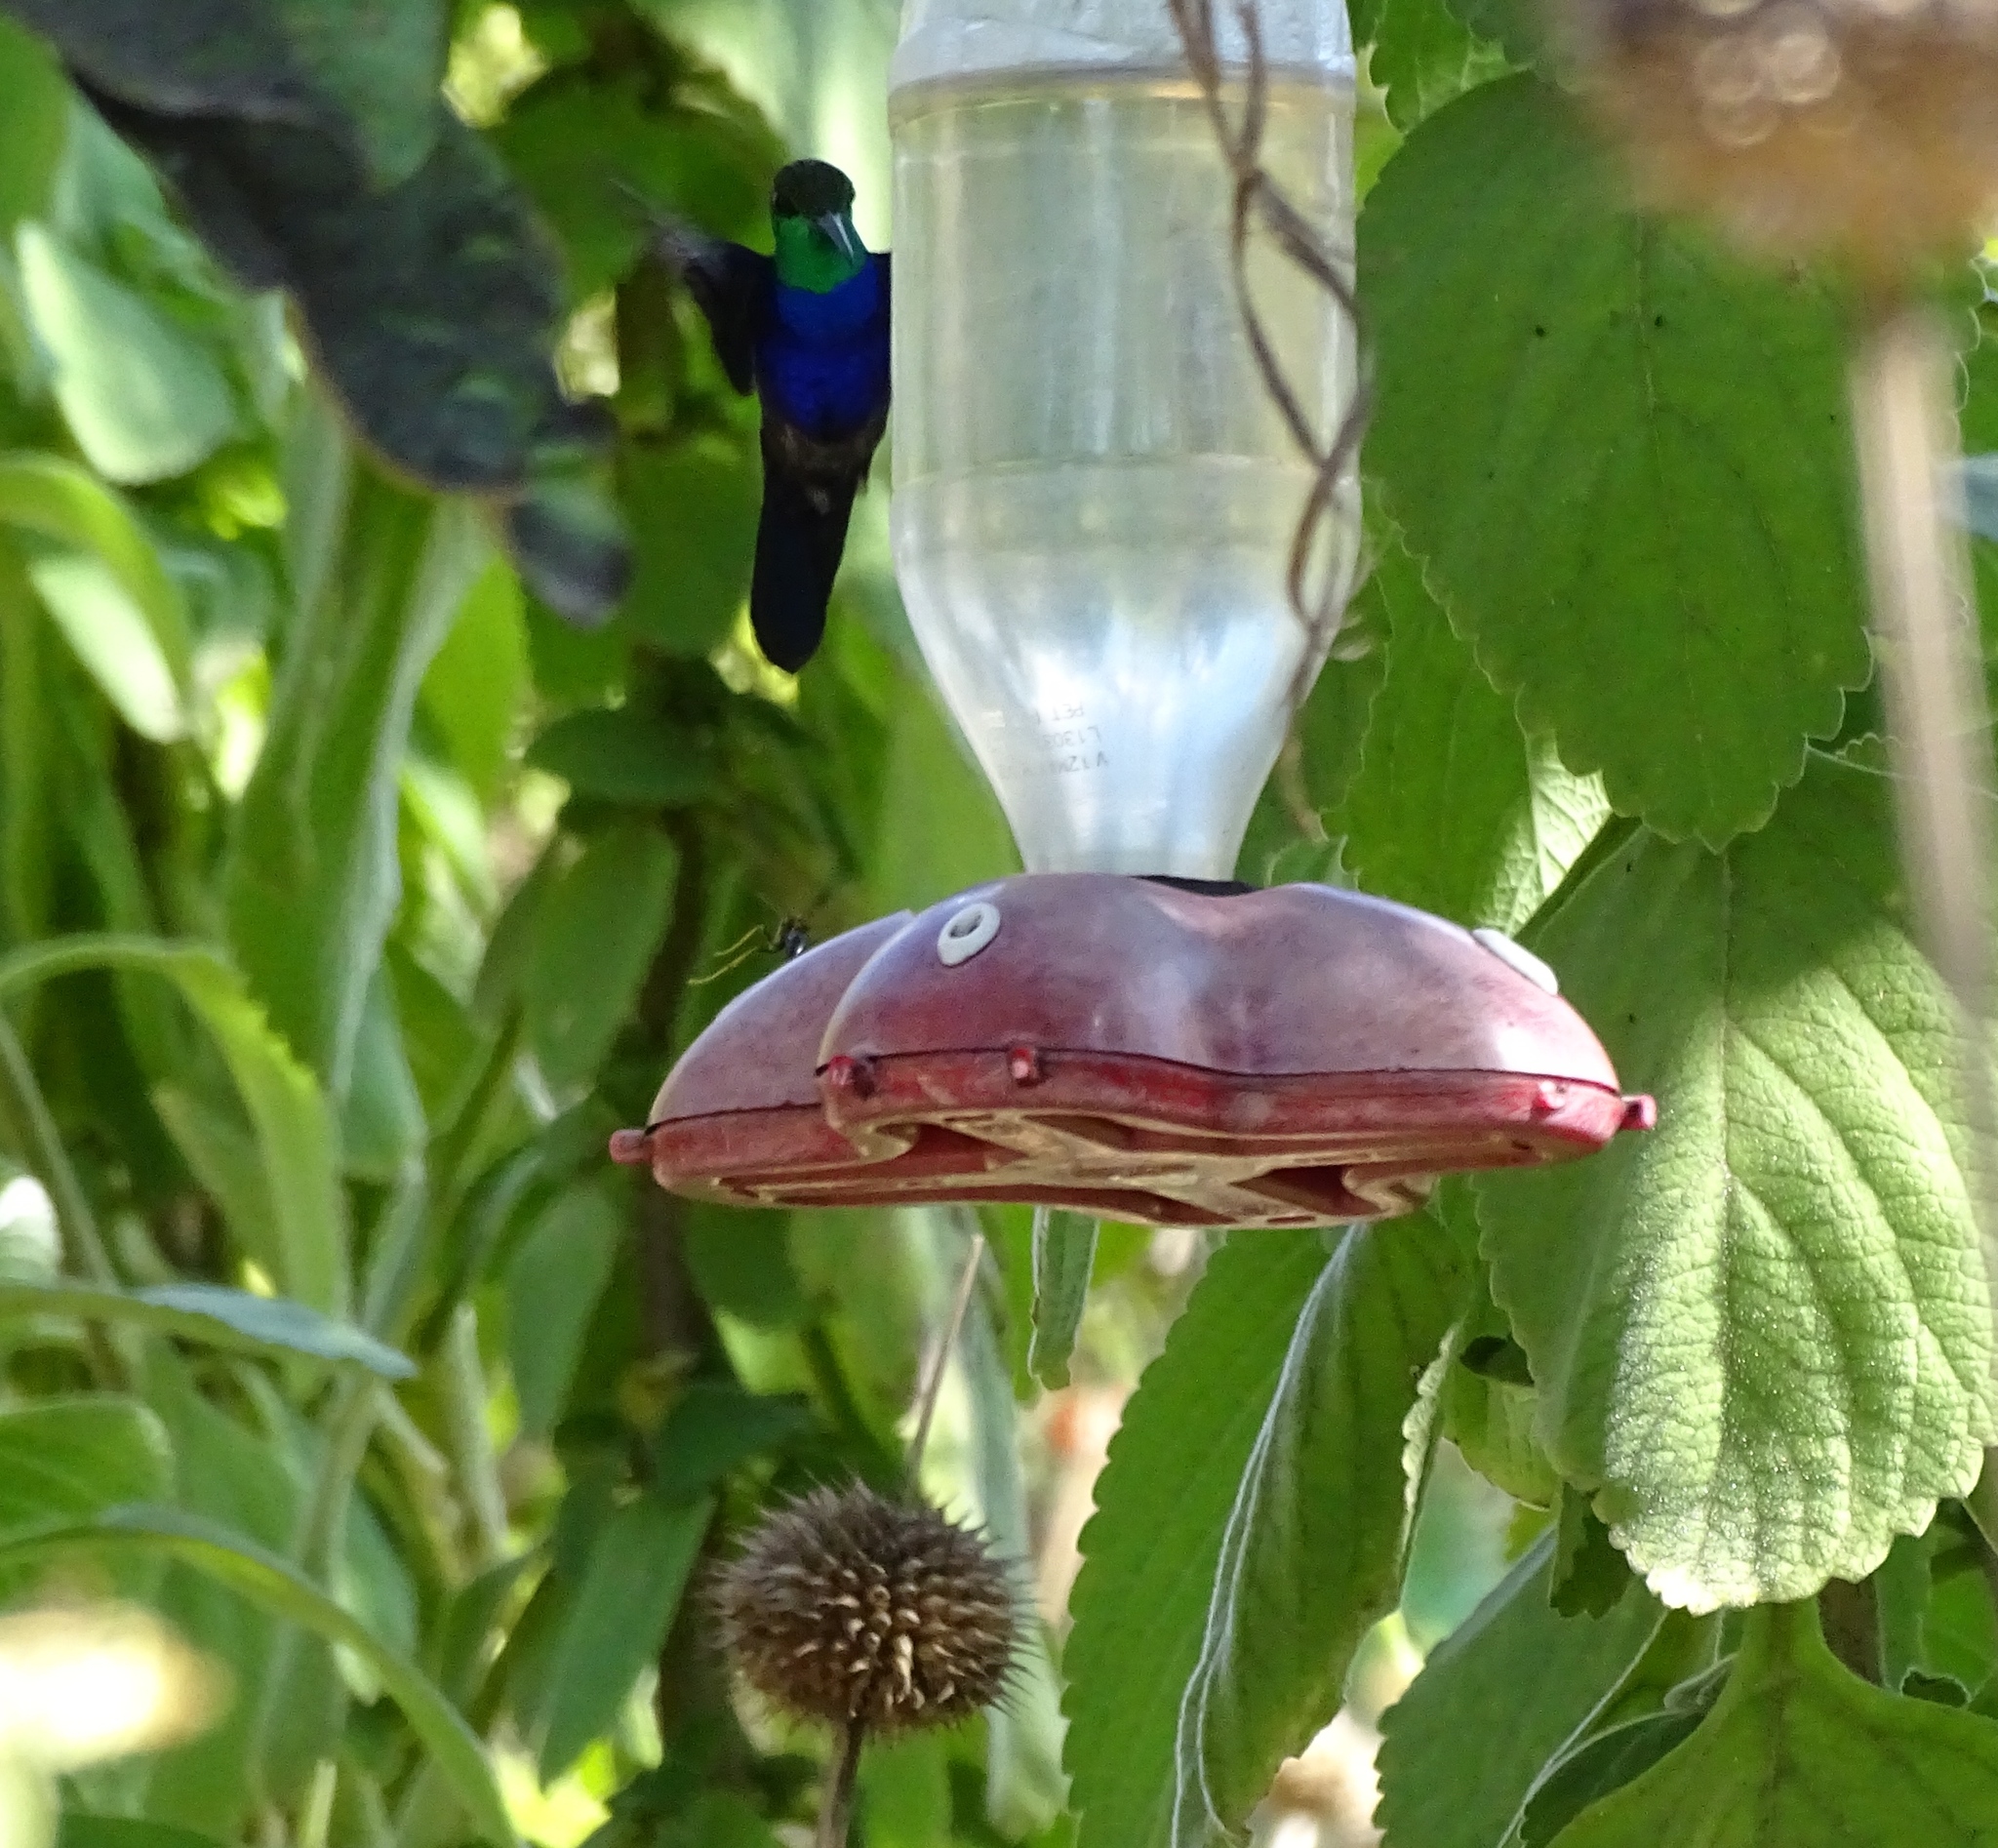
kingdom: Animalia
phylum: Chordata
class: Aves
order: Apodiformes
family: Trochilidae
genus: Thalurania
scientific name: Thalurania furcata
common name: Fork-tailed woodnymph
